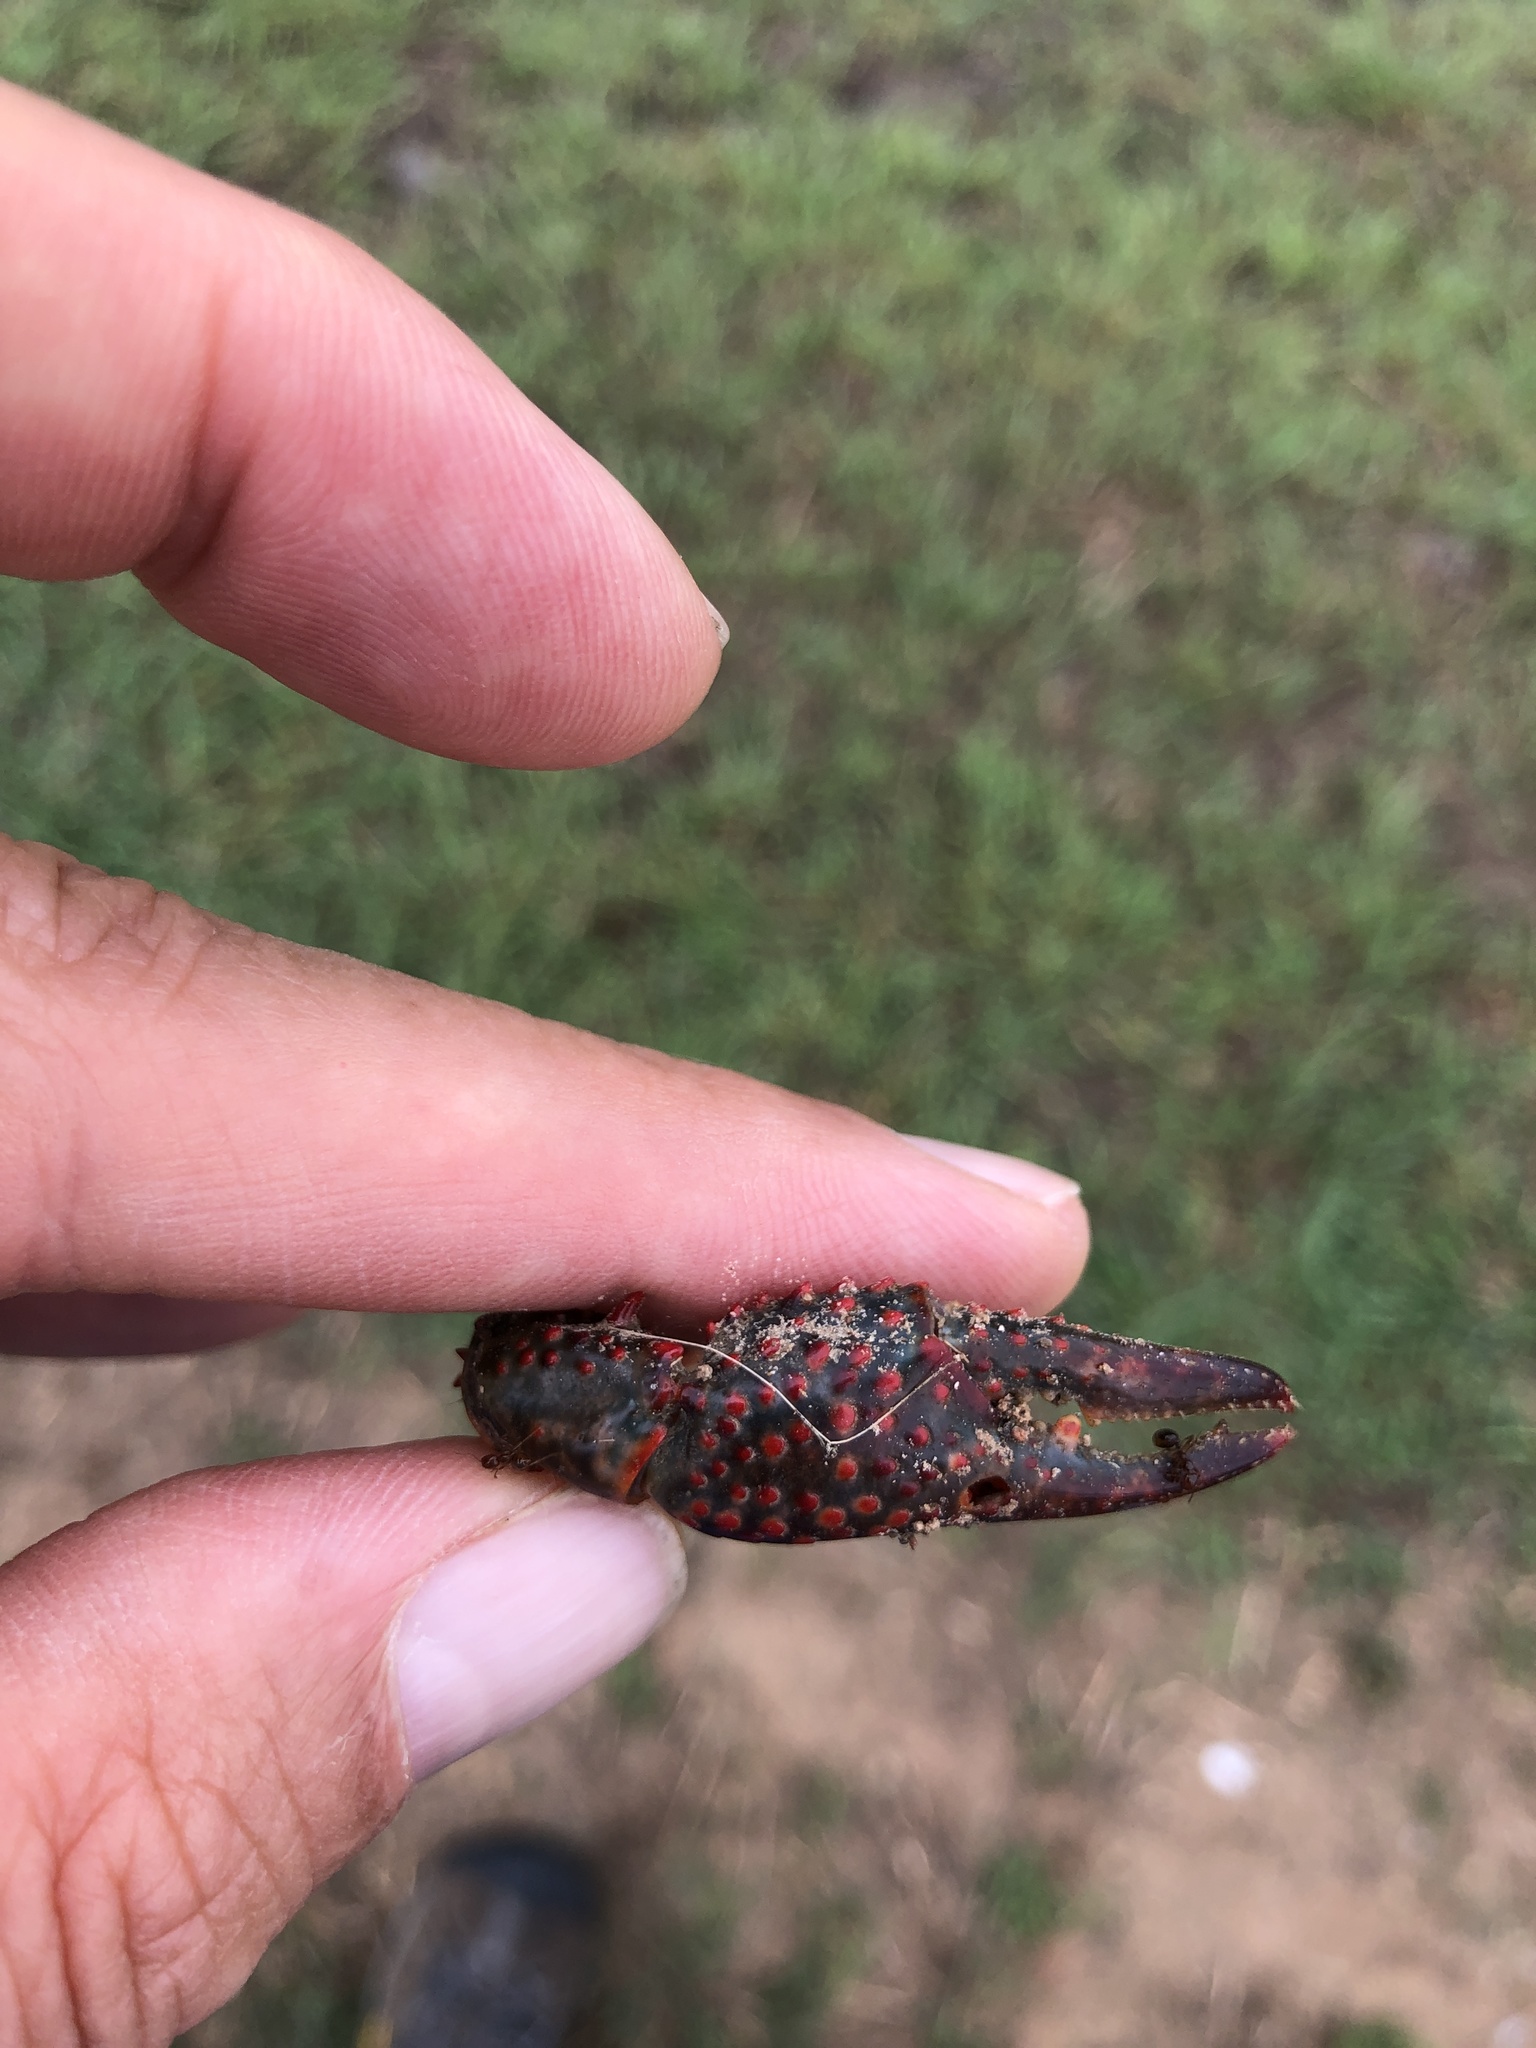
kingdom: Animalia
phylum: Arthropoda
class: Malacostraca
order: Decapoda
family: Cambaridae
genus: Procambarus
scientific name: Procambarus clarkii
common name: Red swamp crayfish
